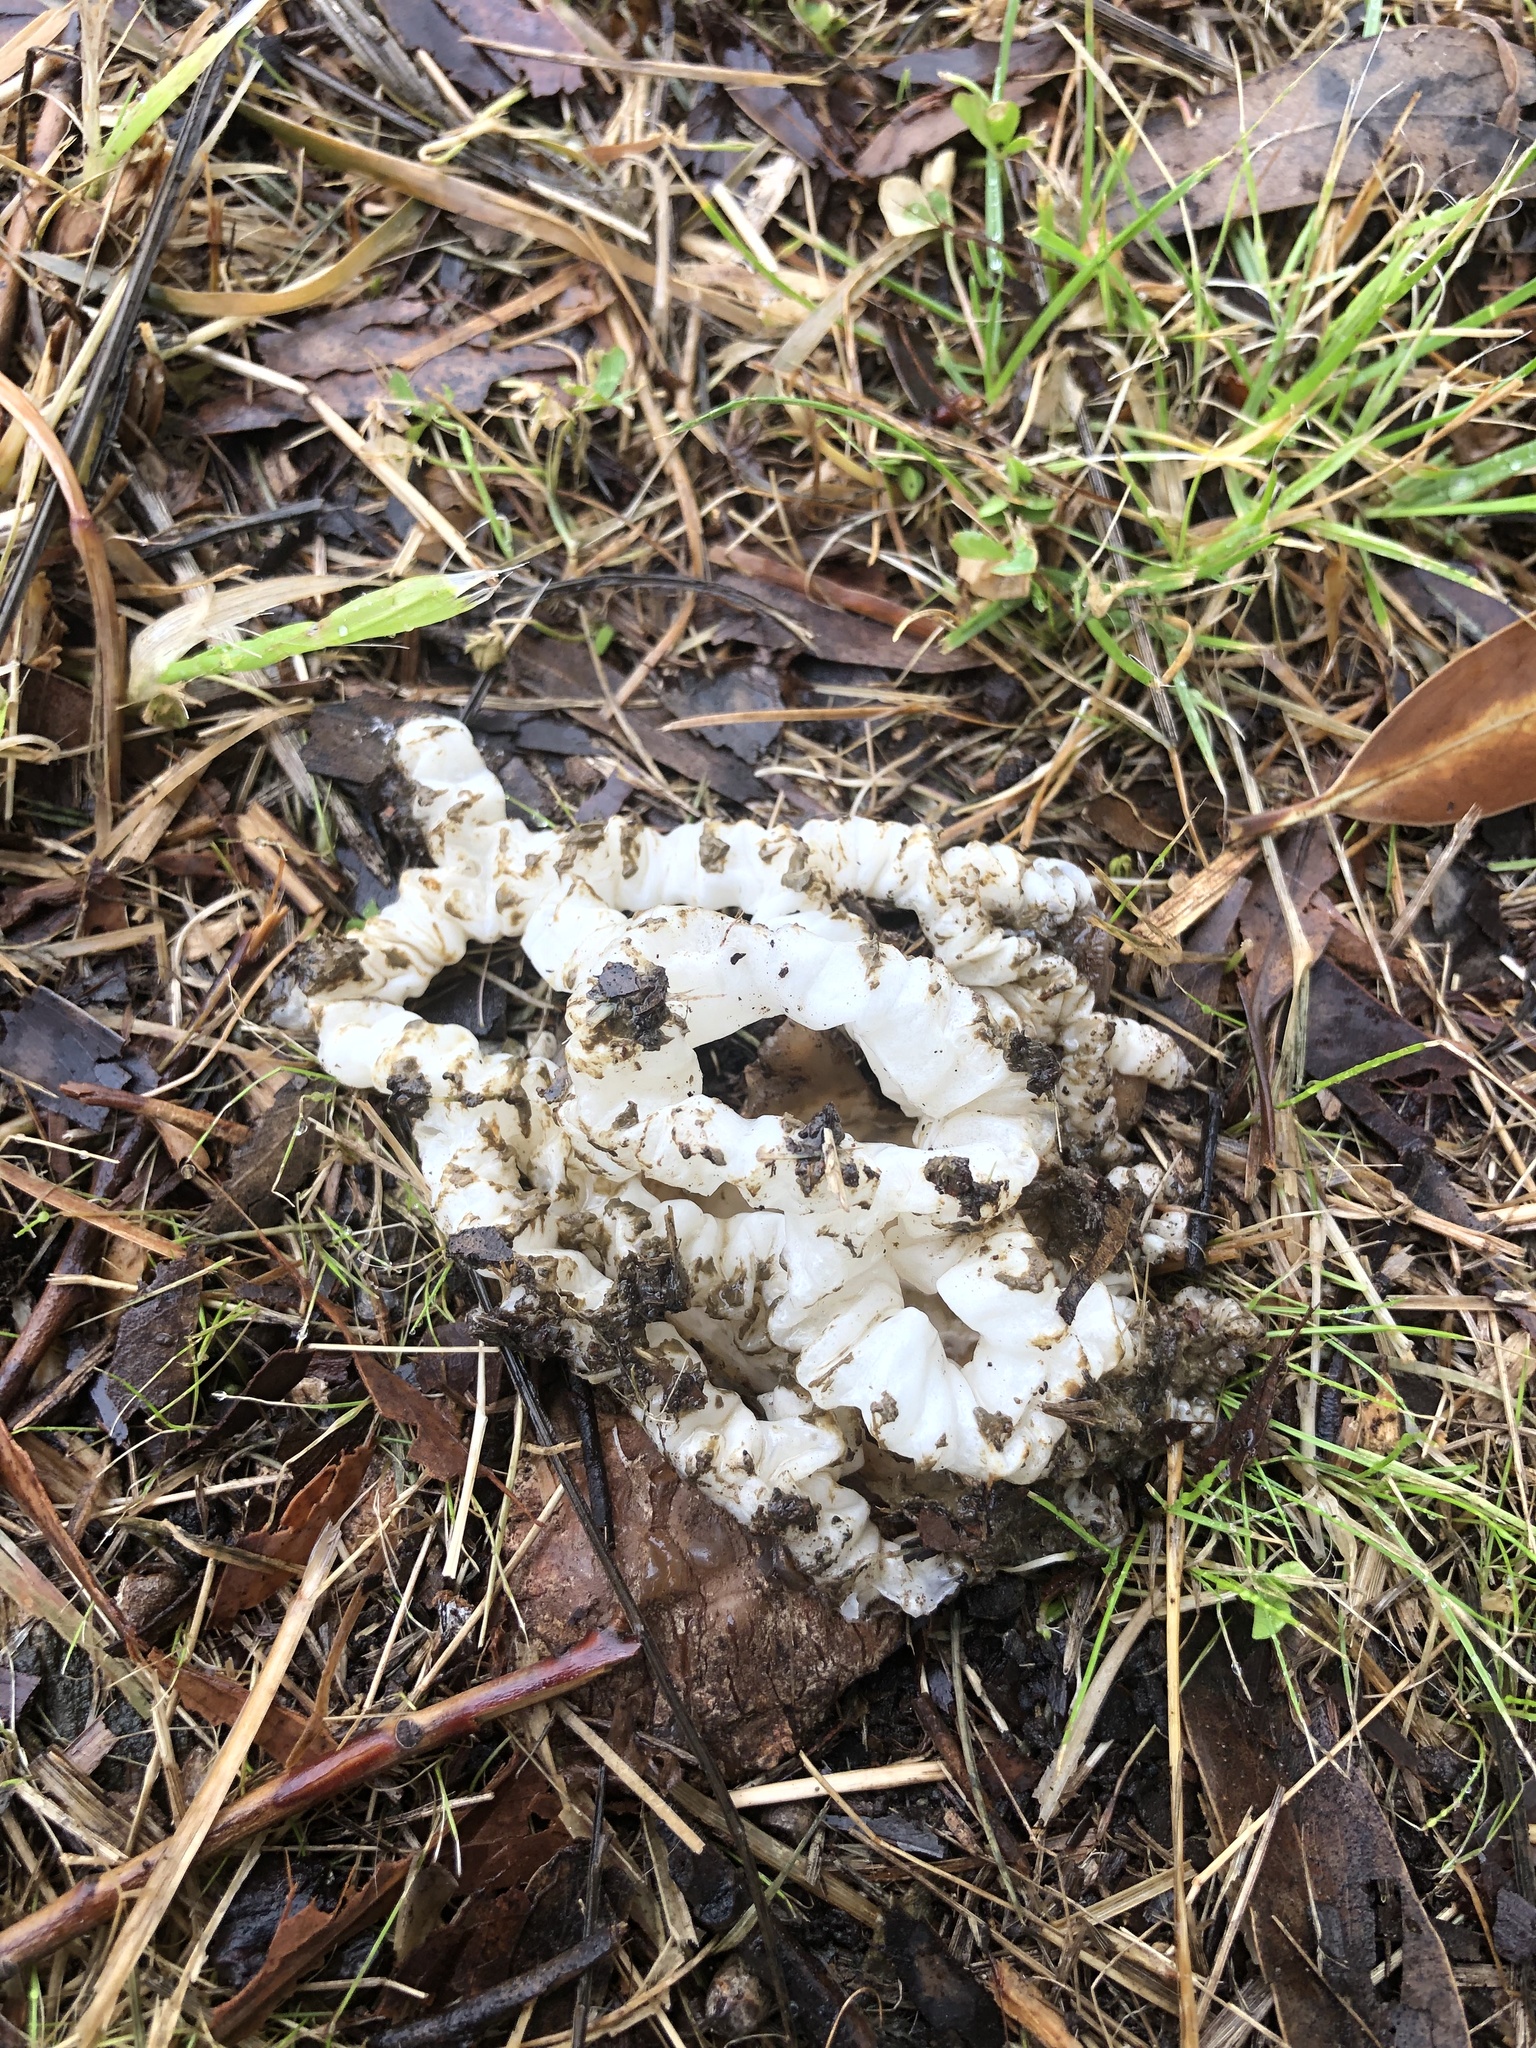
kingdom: Fungi
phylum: Basidiomycota
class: Agaricomycetes
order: Phallales
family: Phallaceae
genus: Ileodictyon
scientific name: Ileodictyon cibarium
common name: Basket fungus
